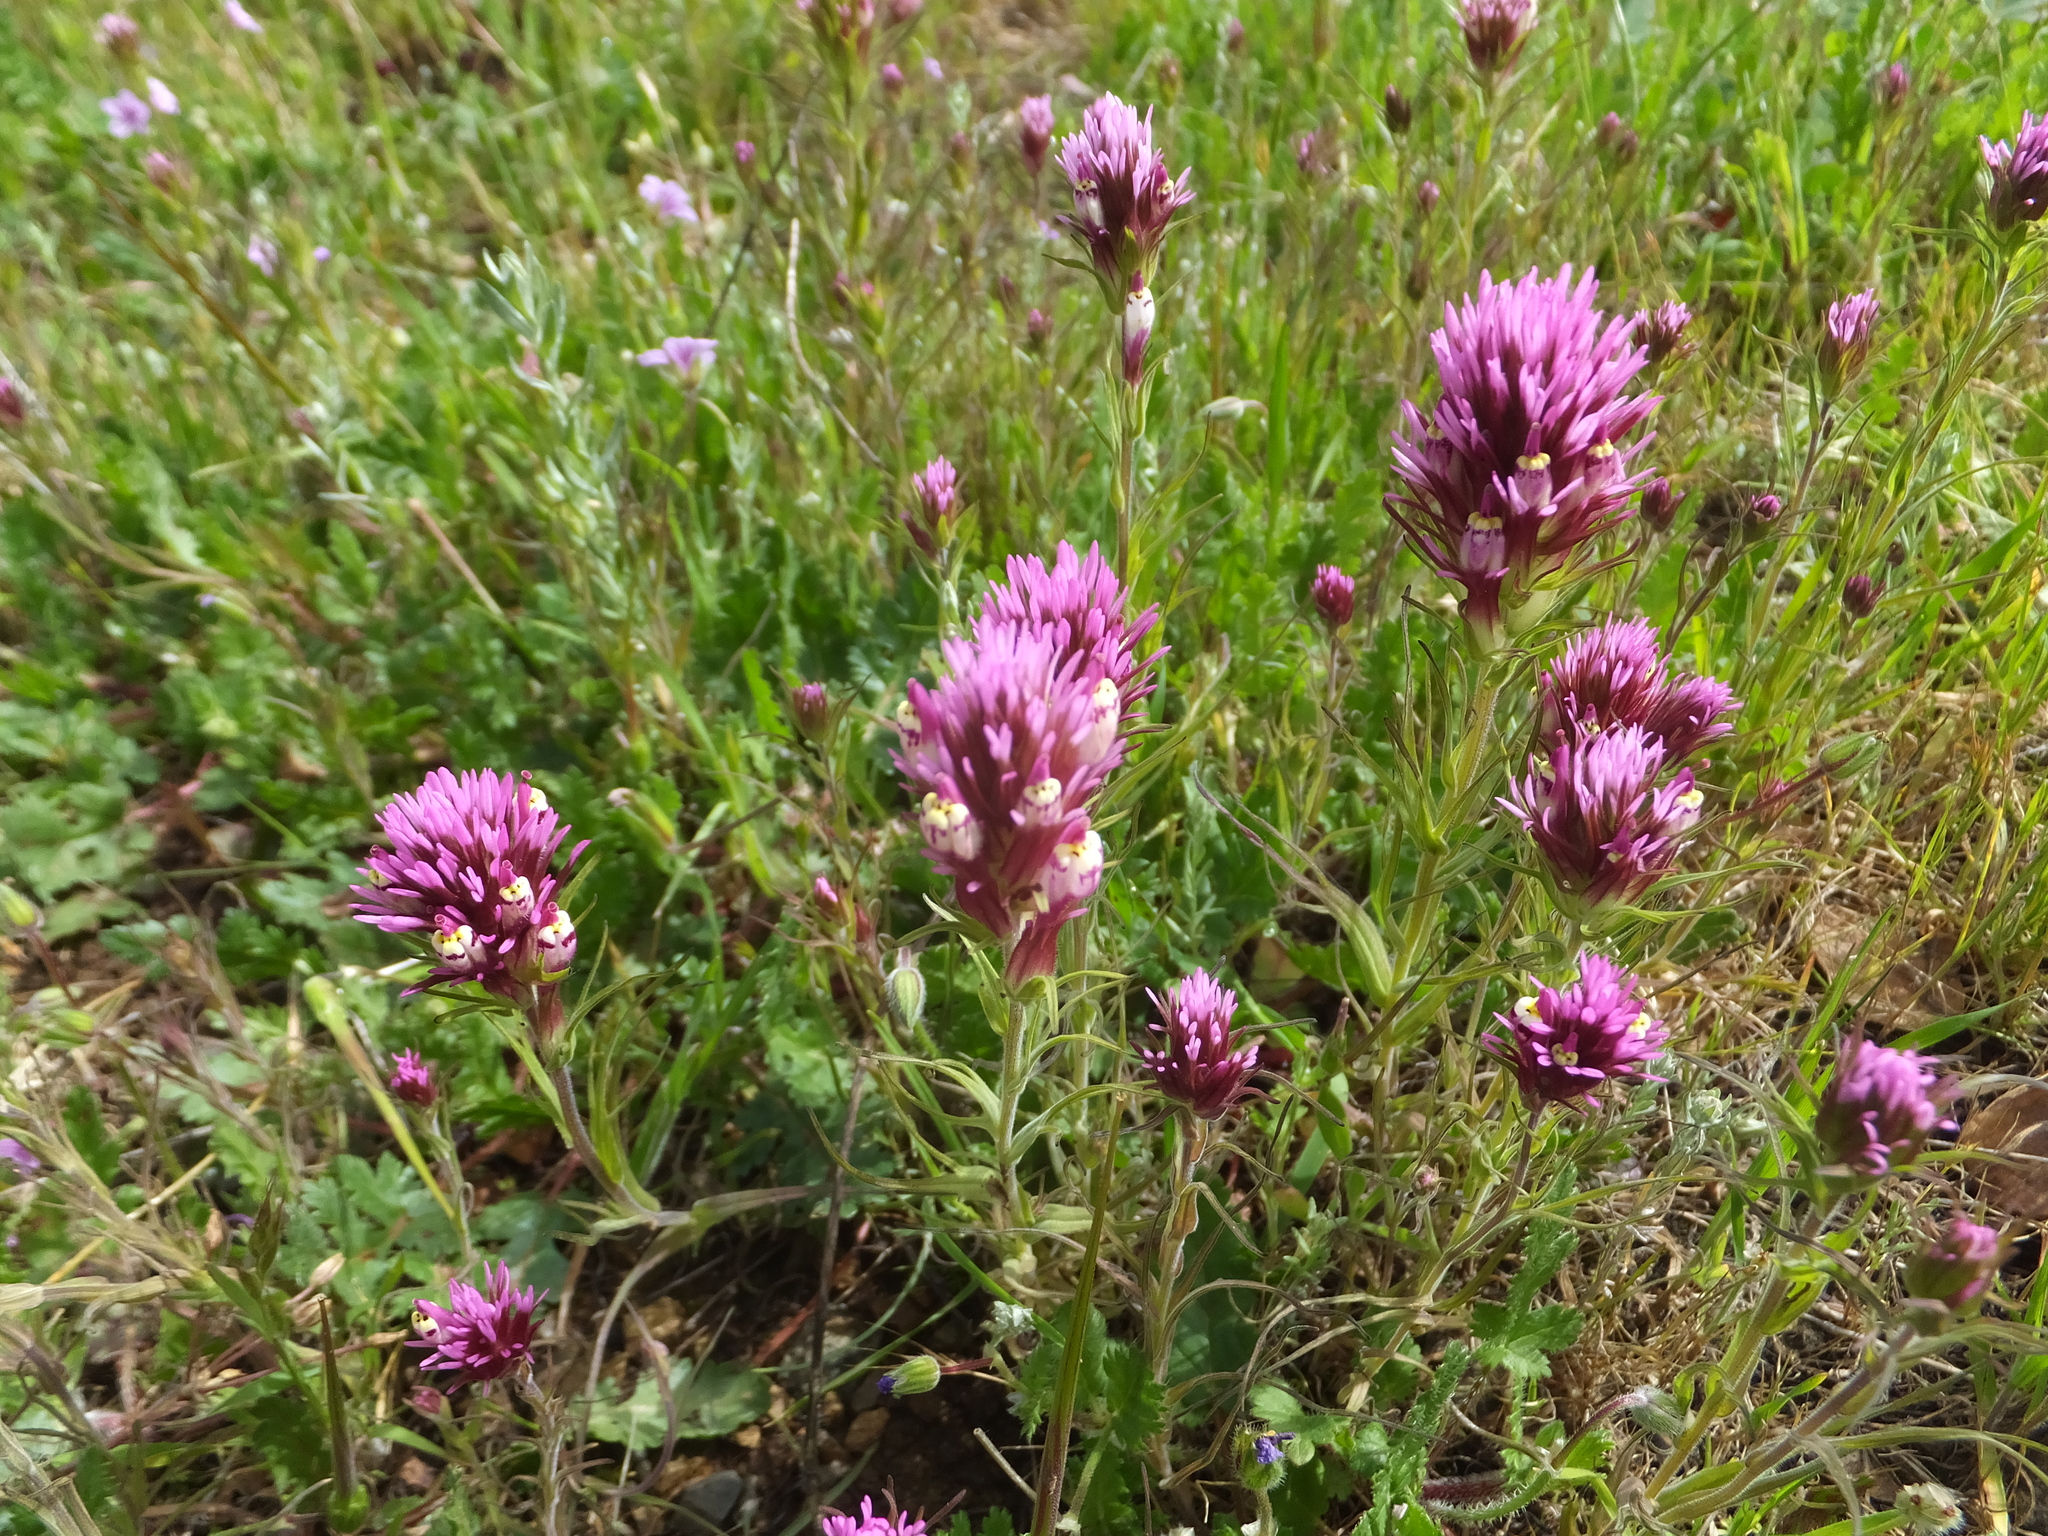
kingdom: Plantae
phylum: Tracheophyta
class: Magnoliopsida
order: Lamiales
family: Orobanchaceae
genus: Castilleja
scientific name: Castilleja densiflora
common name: Dense-flower indian paintbrush
